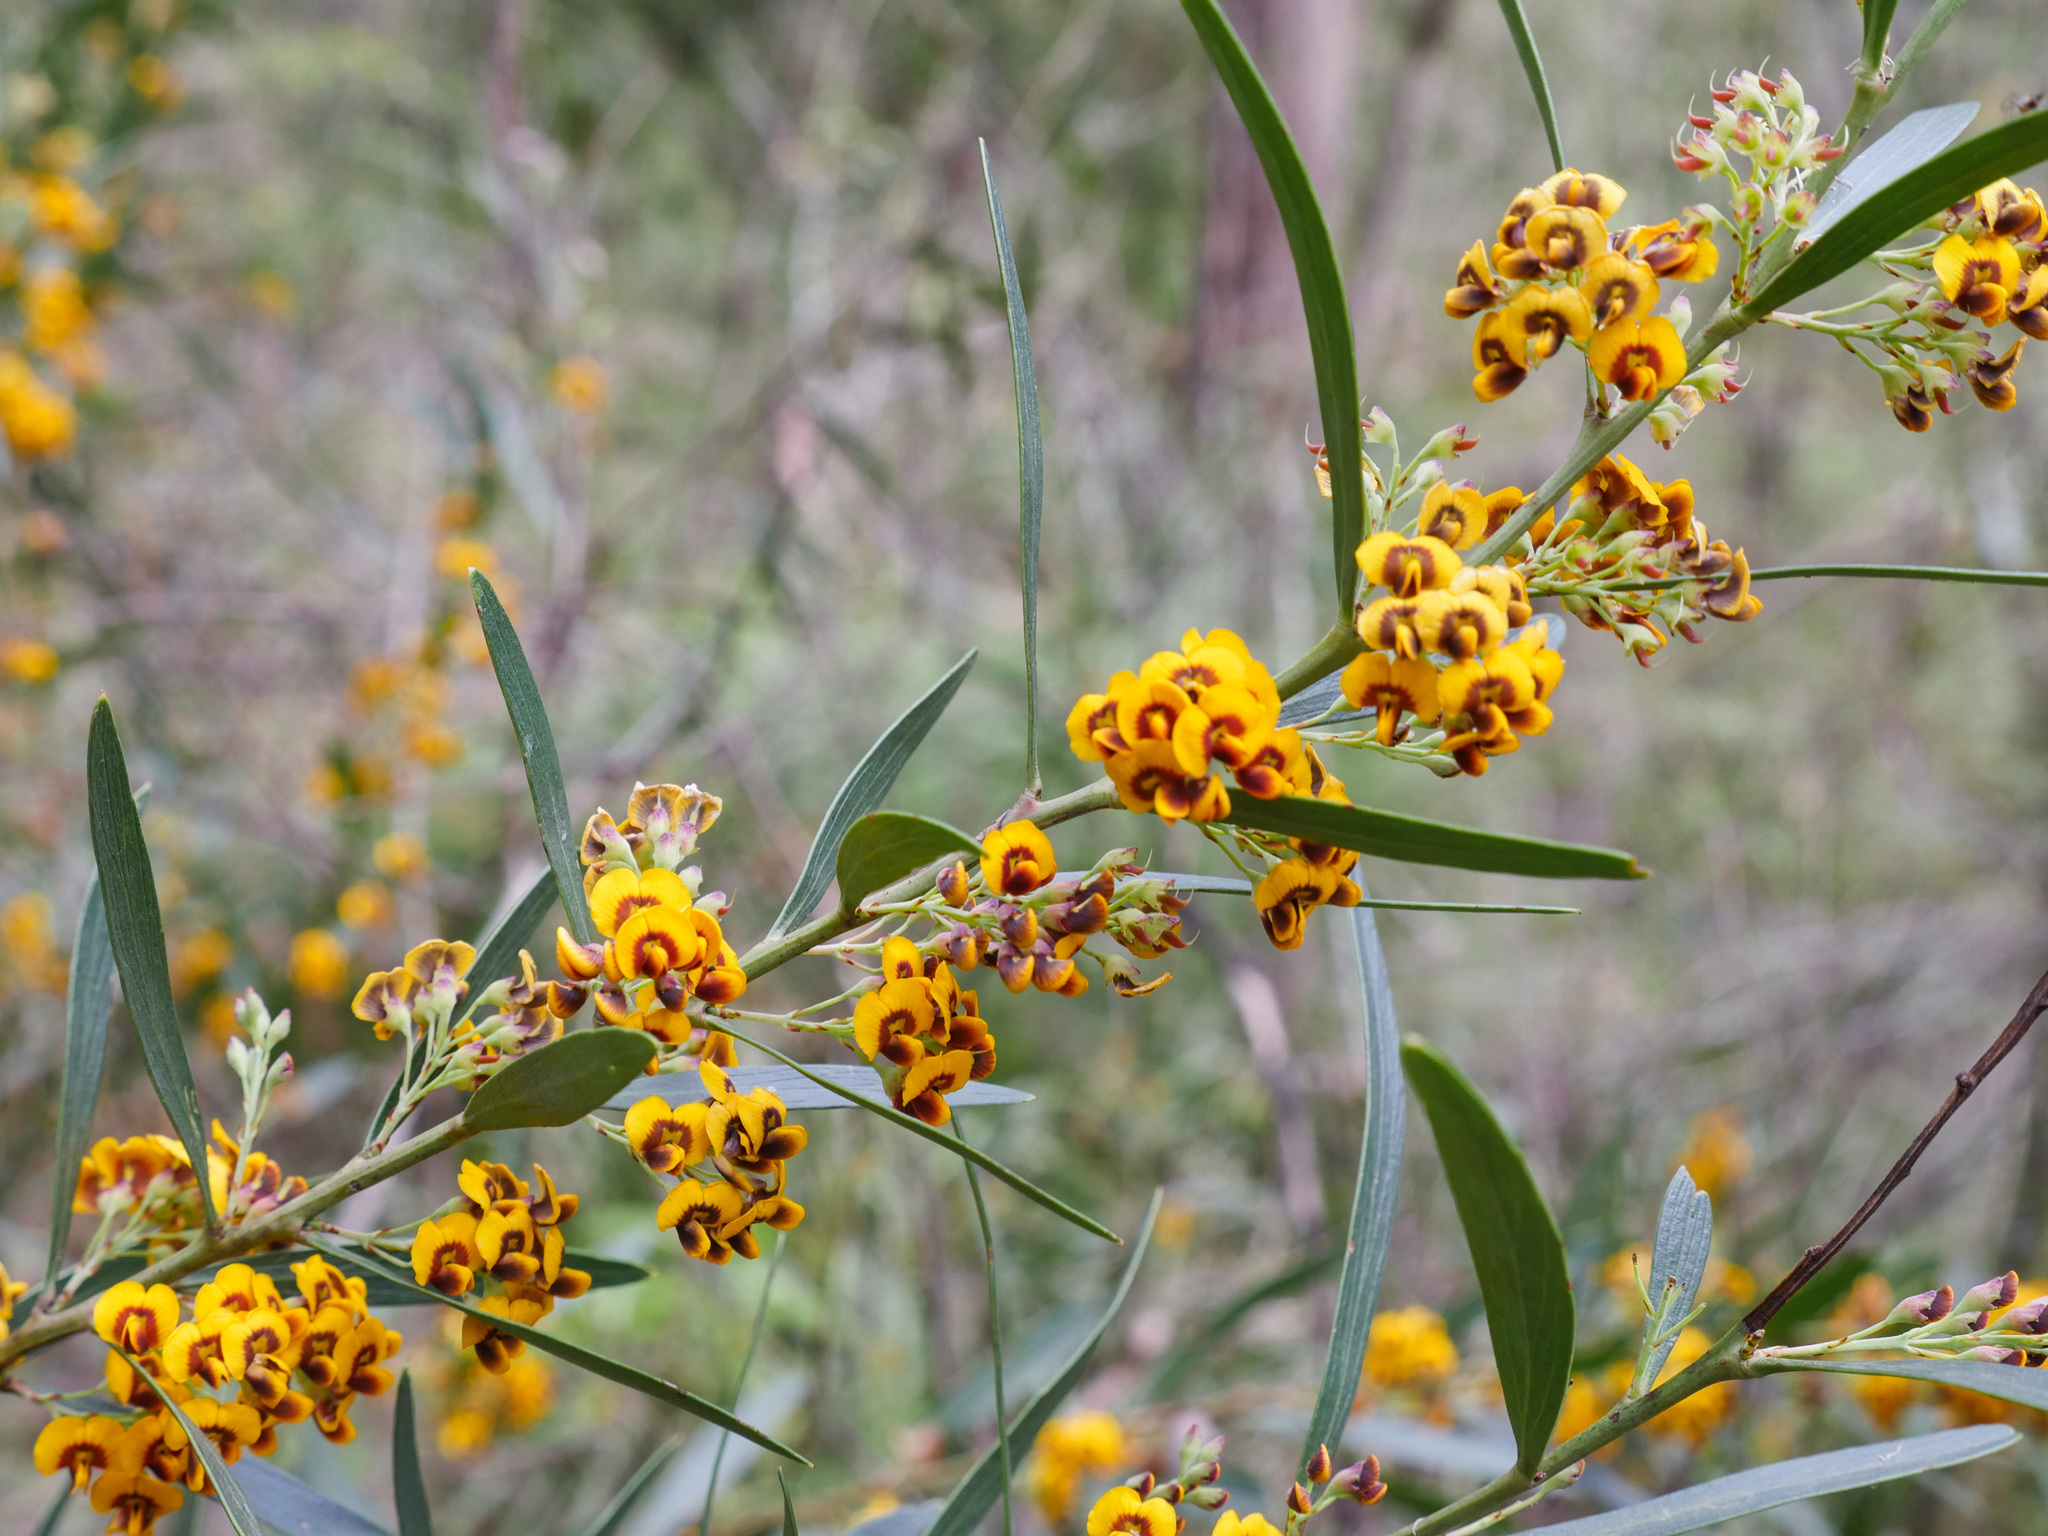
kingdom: Plantae
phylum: Tracheophyta
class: Magnoliopsida
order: Fabales
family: Fabaceae
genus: Daviesia
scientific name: Daviesia mimosoides
